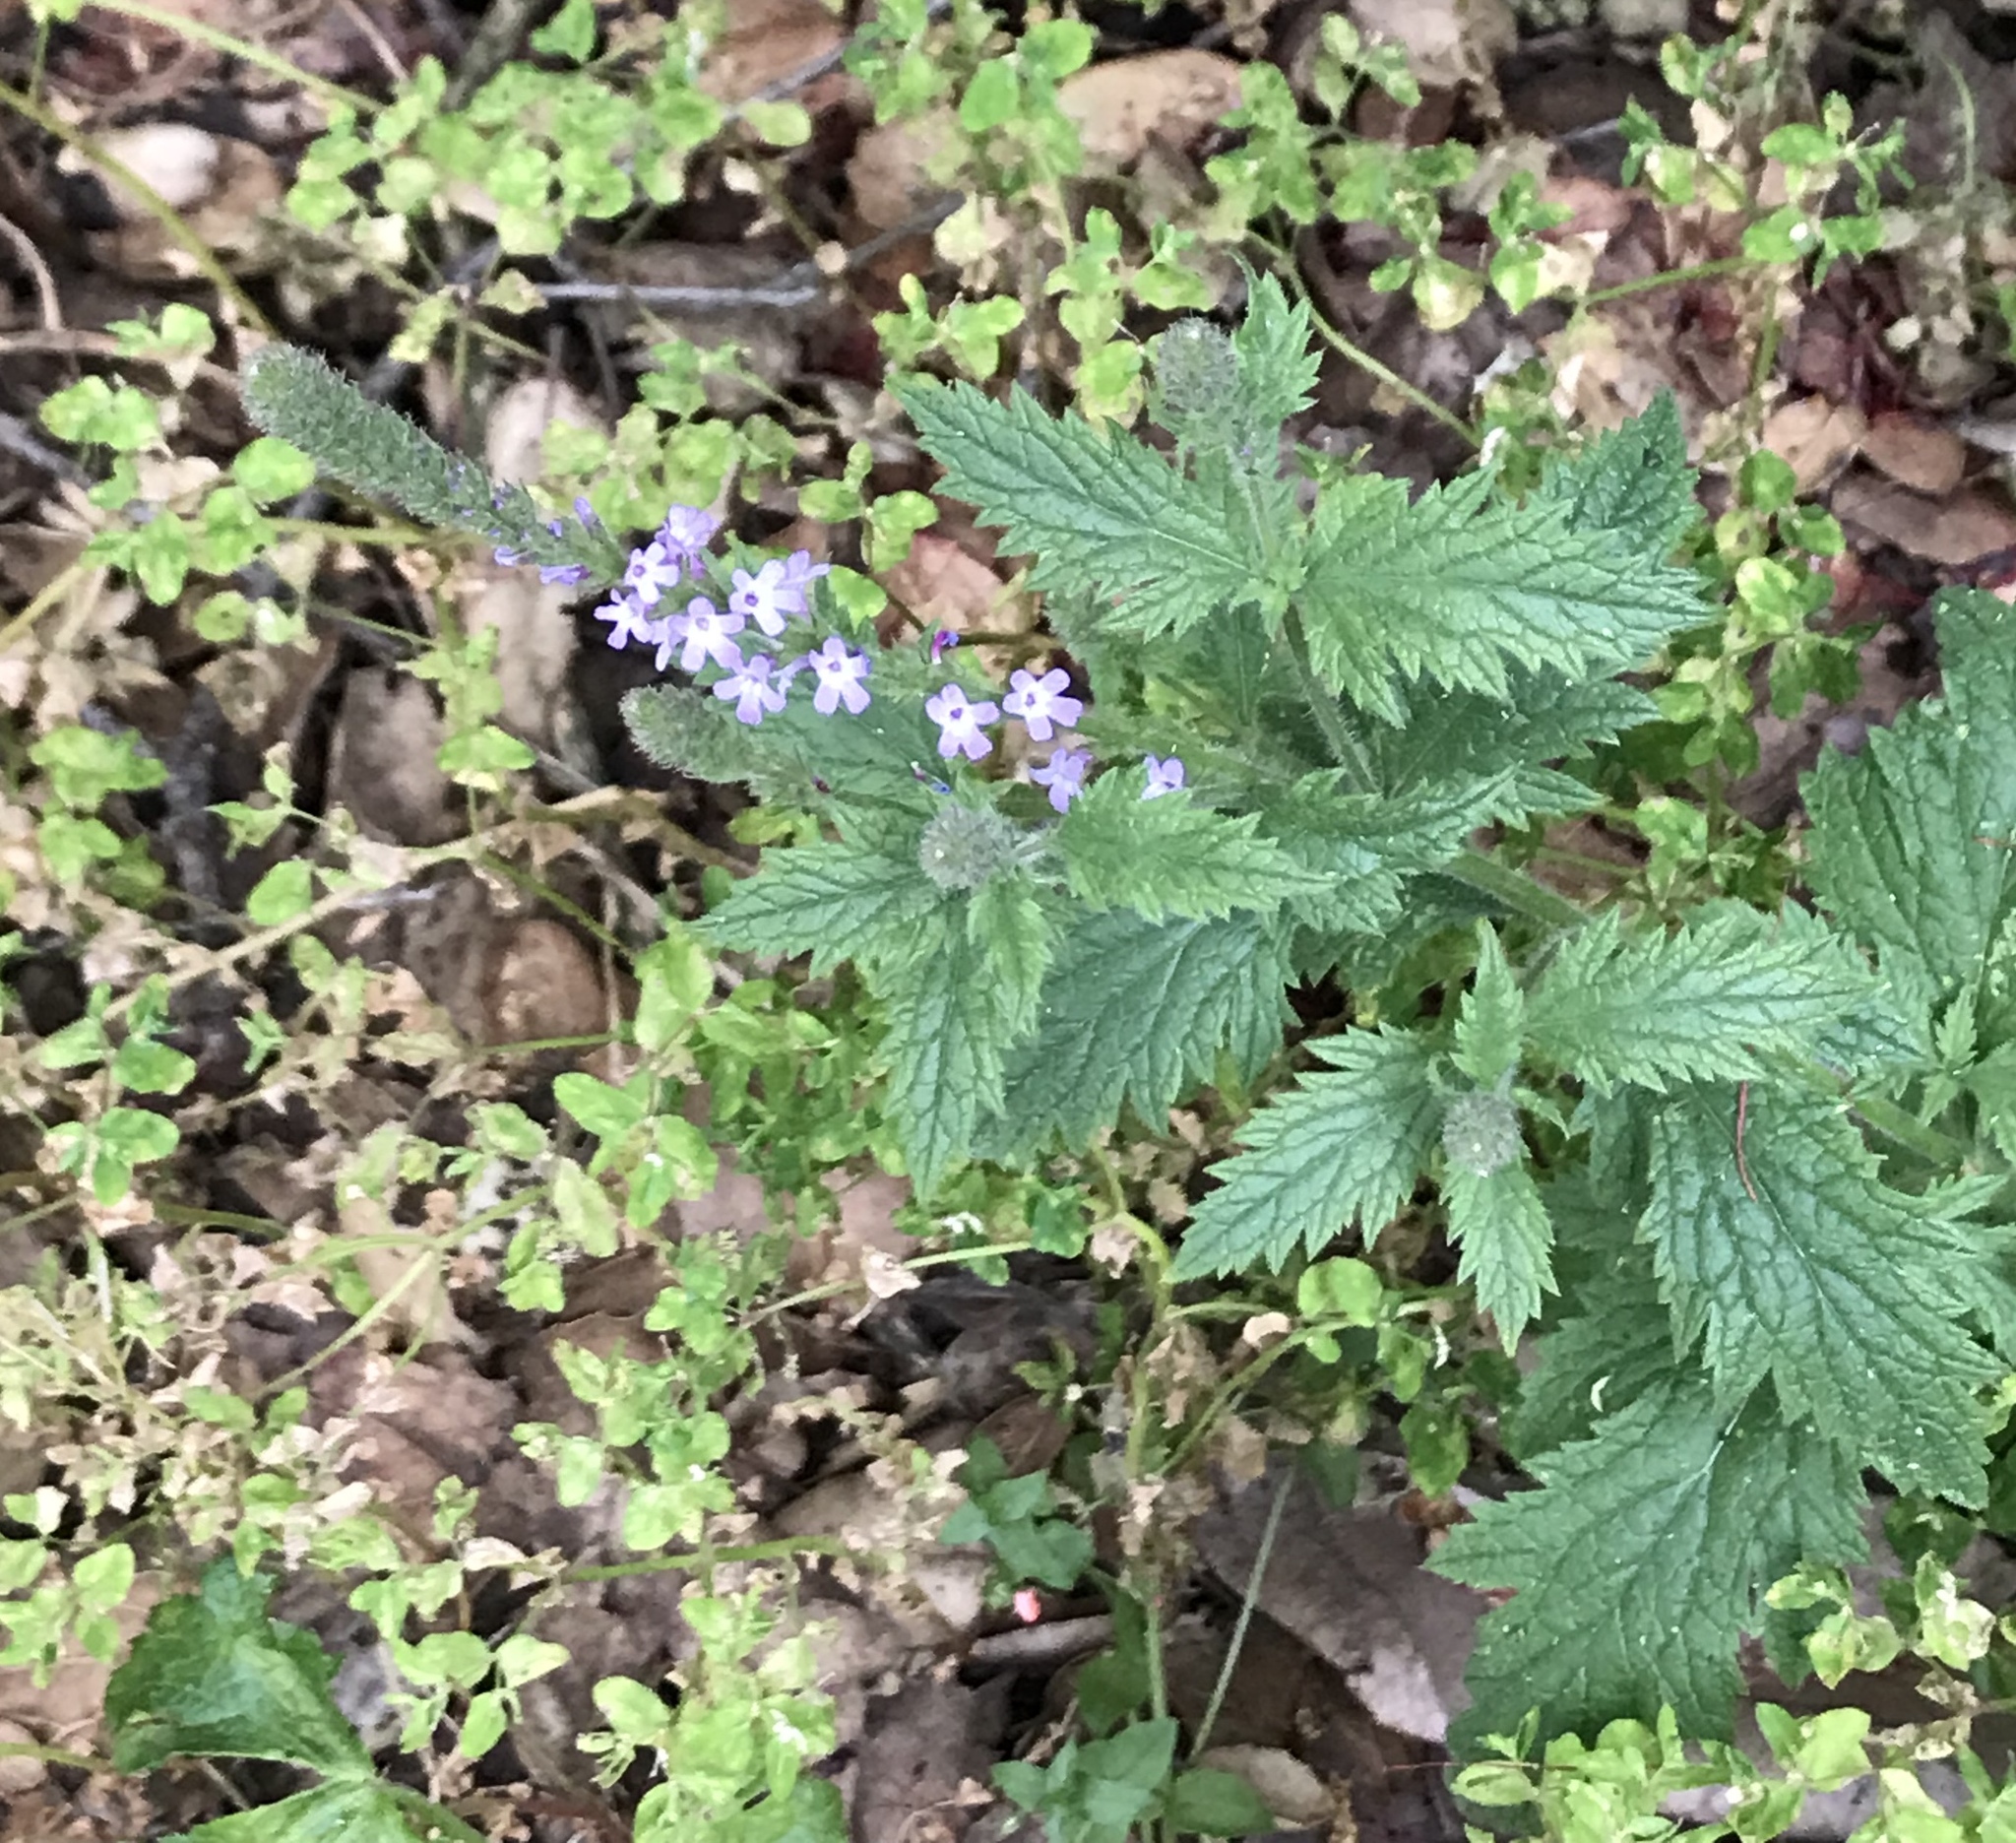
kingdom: Plantae
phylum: Tracheophyta
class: Magnoliopsida
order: Lamiales
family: Verbenaceae
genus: Verbena
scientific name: Verbena lasiostachys
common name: Vervain
